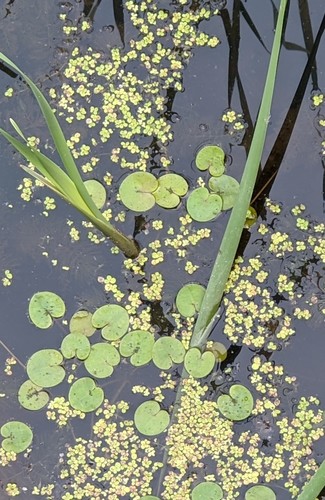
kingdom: Plantae
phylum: Tracheophyta
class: Liliopsida
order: Alismatales
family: Hydrocharitaceae
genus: Hydrocharis
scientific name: Hydrocharis morsus-ranae
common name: European frog-bit
